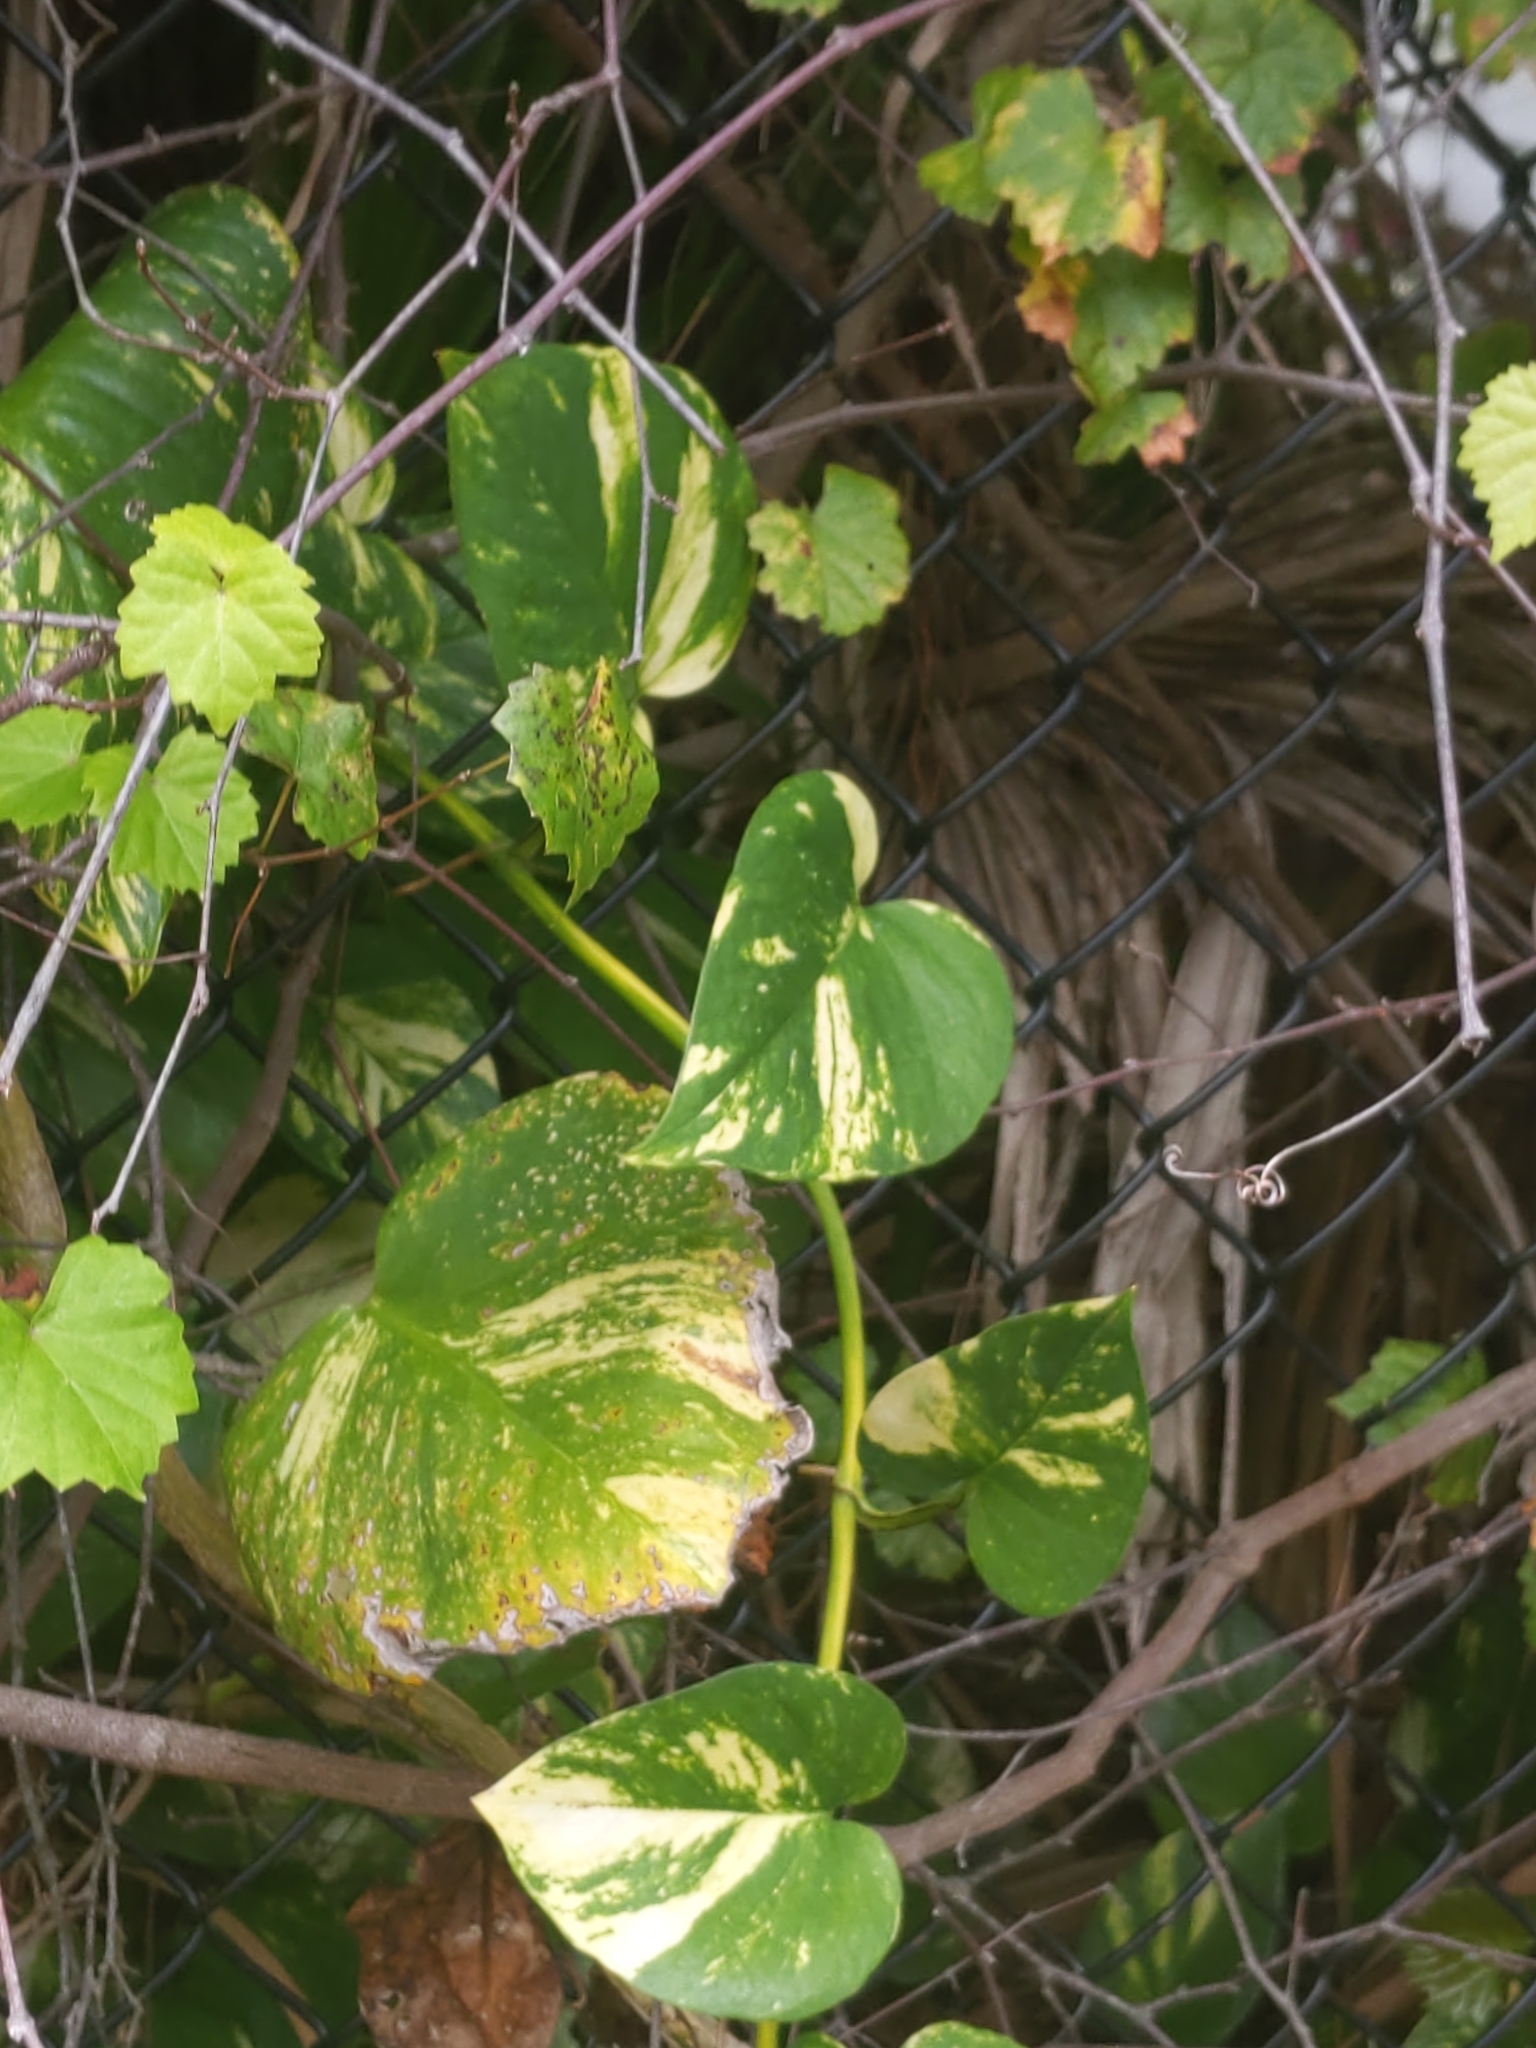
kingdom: Plantae
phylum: Tracheophyta
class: Liliopsida
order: Alismatales
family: Araceae
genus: Epipremnum
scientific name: Epipremnum aureum
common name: Golden hunter's-robe
